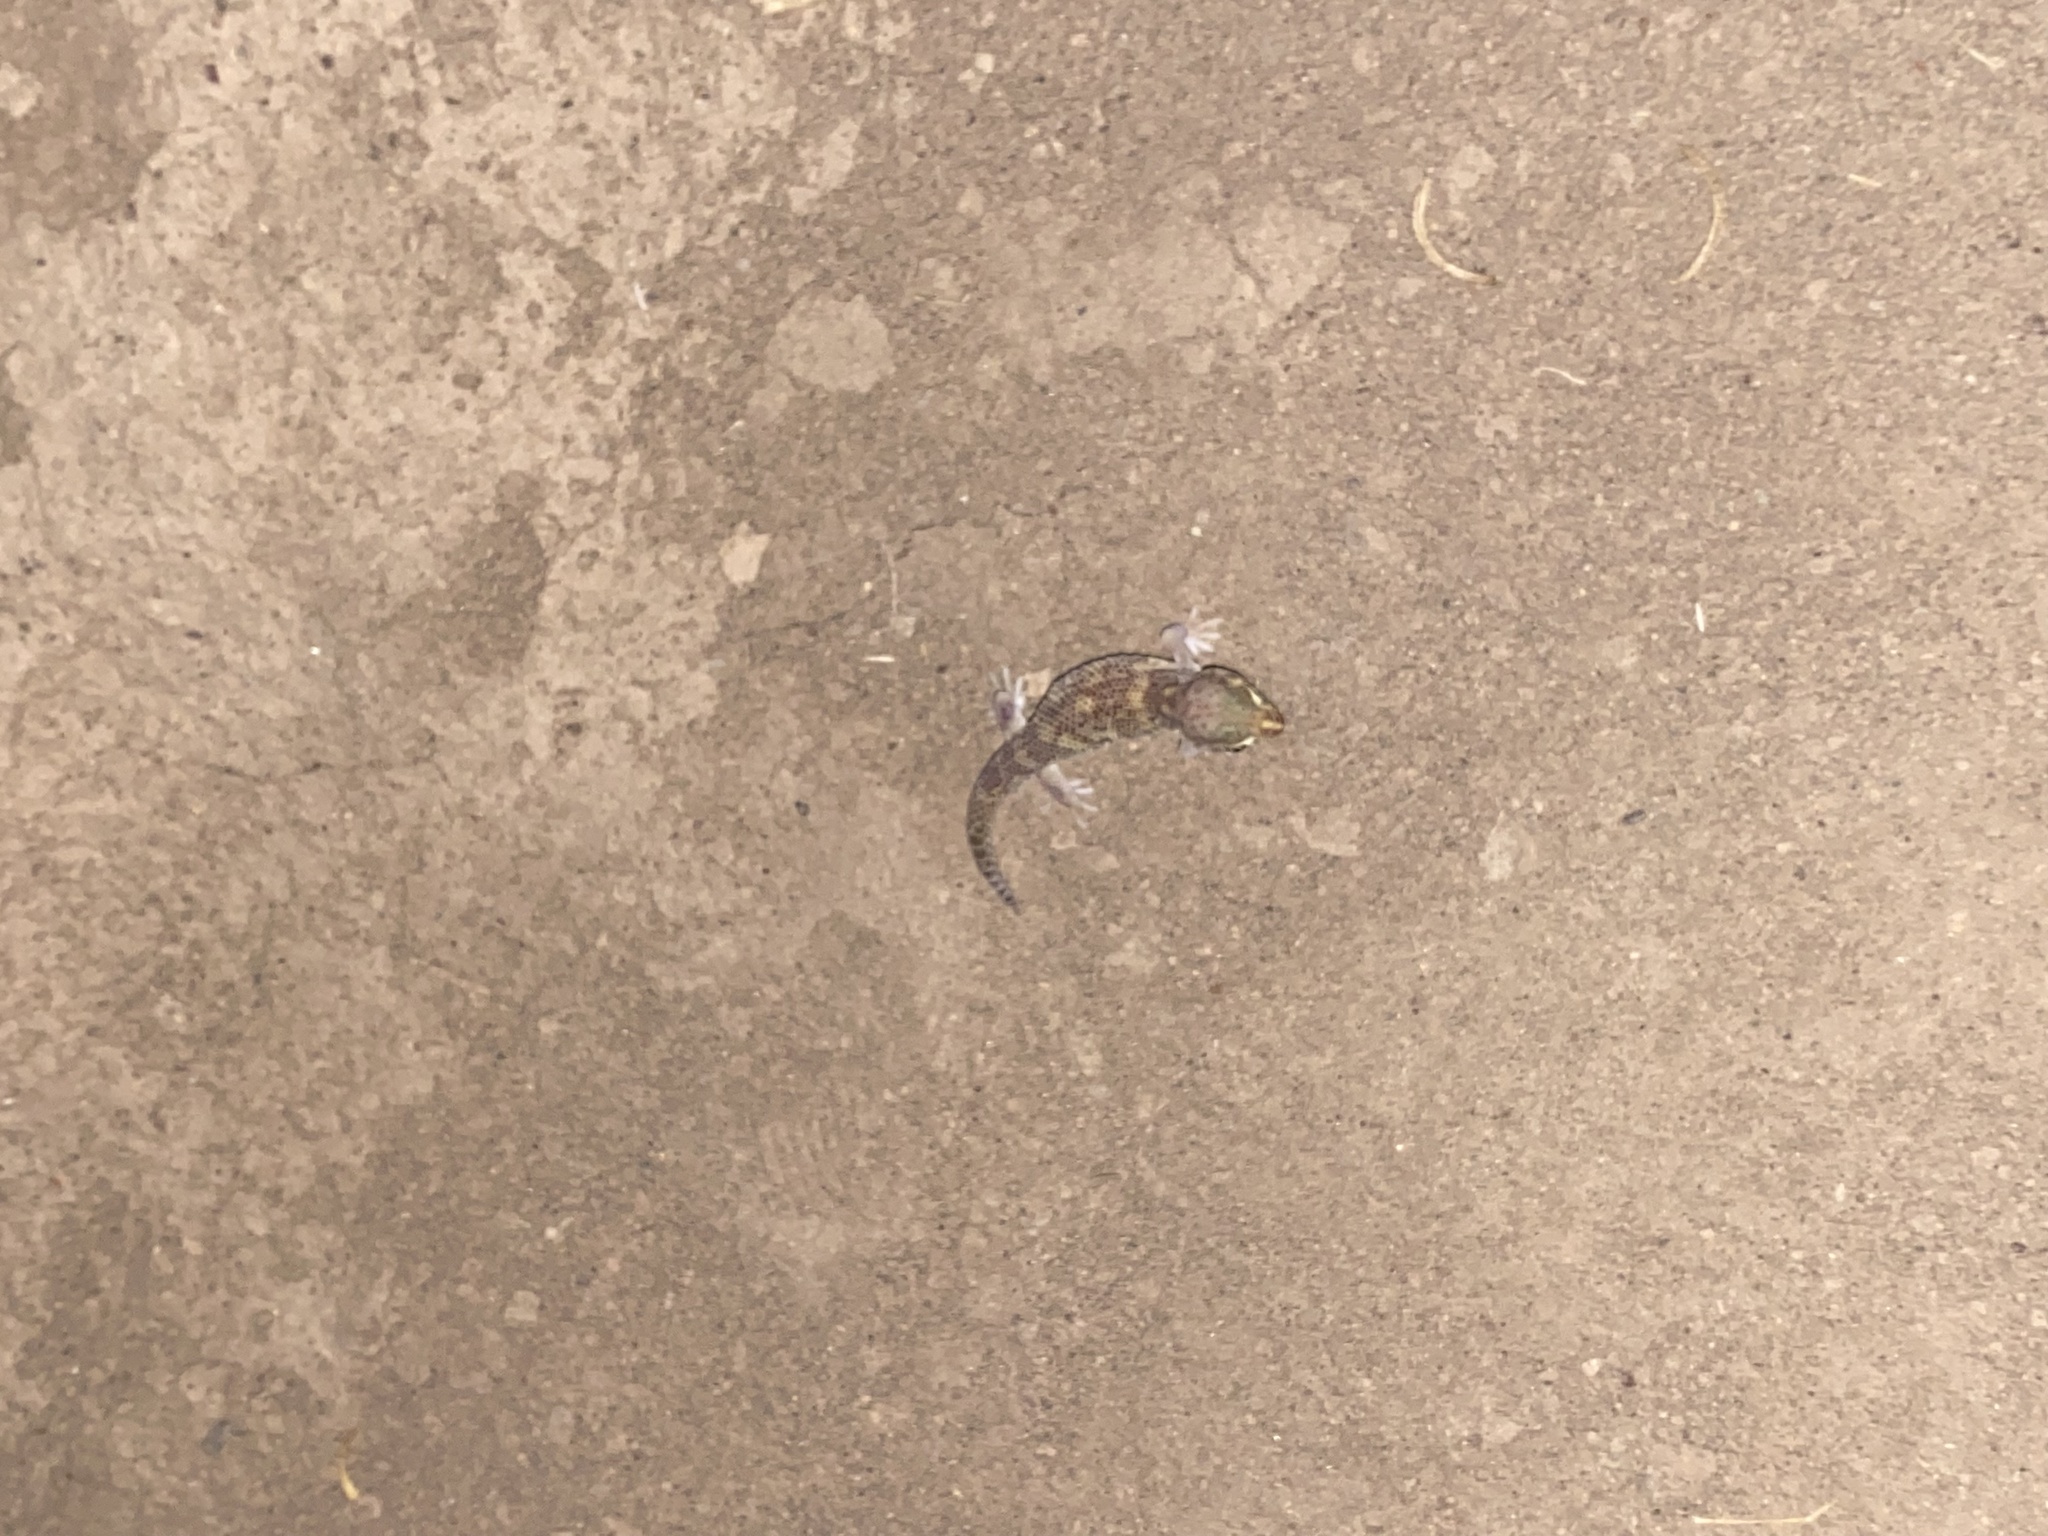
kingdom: Animalia
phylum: Chordata
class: Squamata
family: Sphaerodactylidae
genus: Teratoscincus
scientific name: Teratoscincus bedriagai
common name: Bedriaga's plate-tailed gecko
